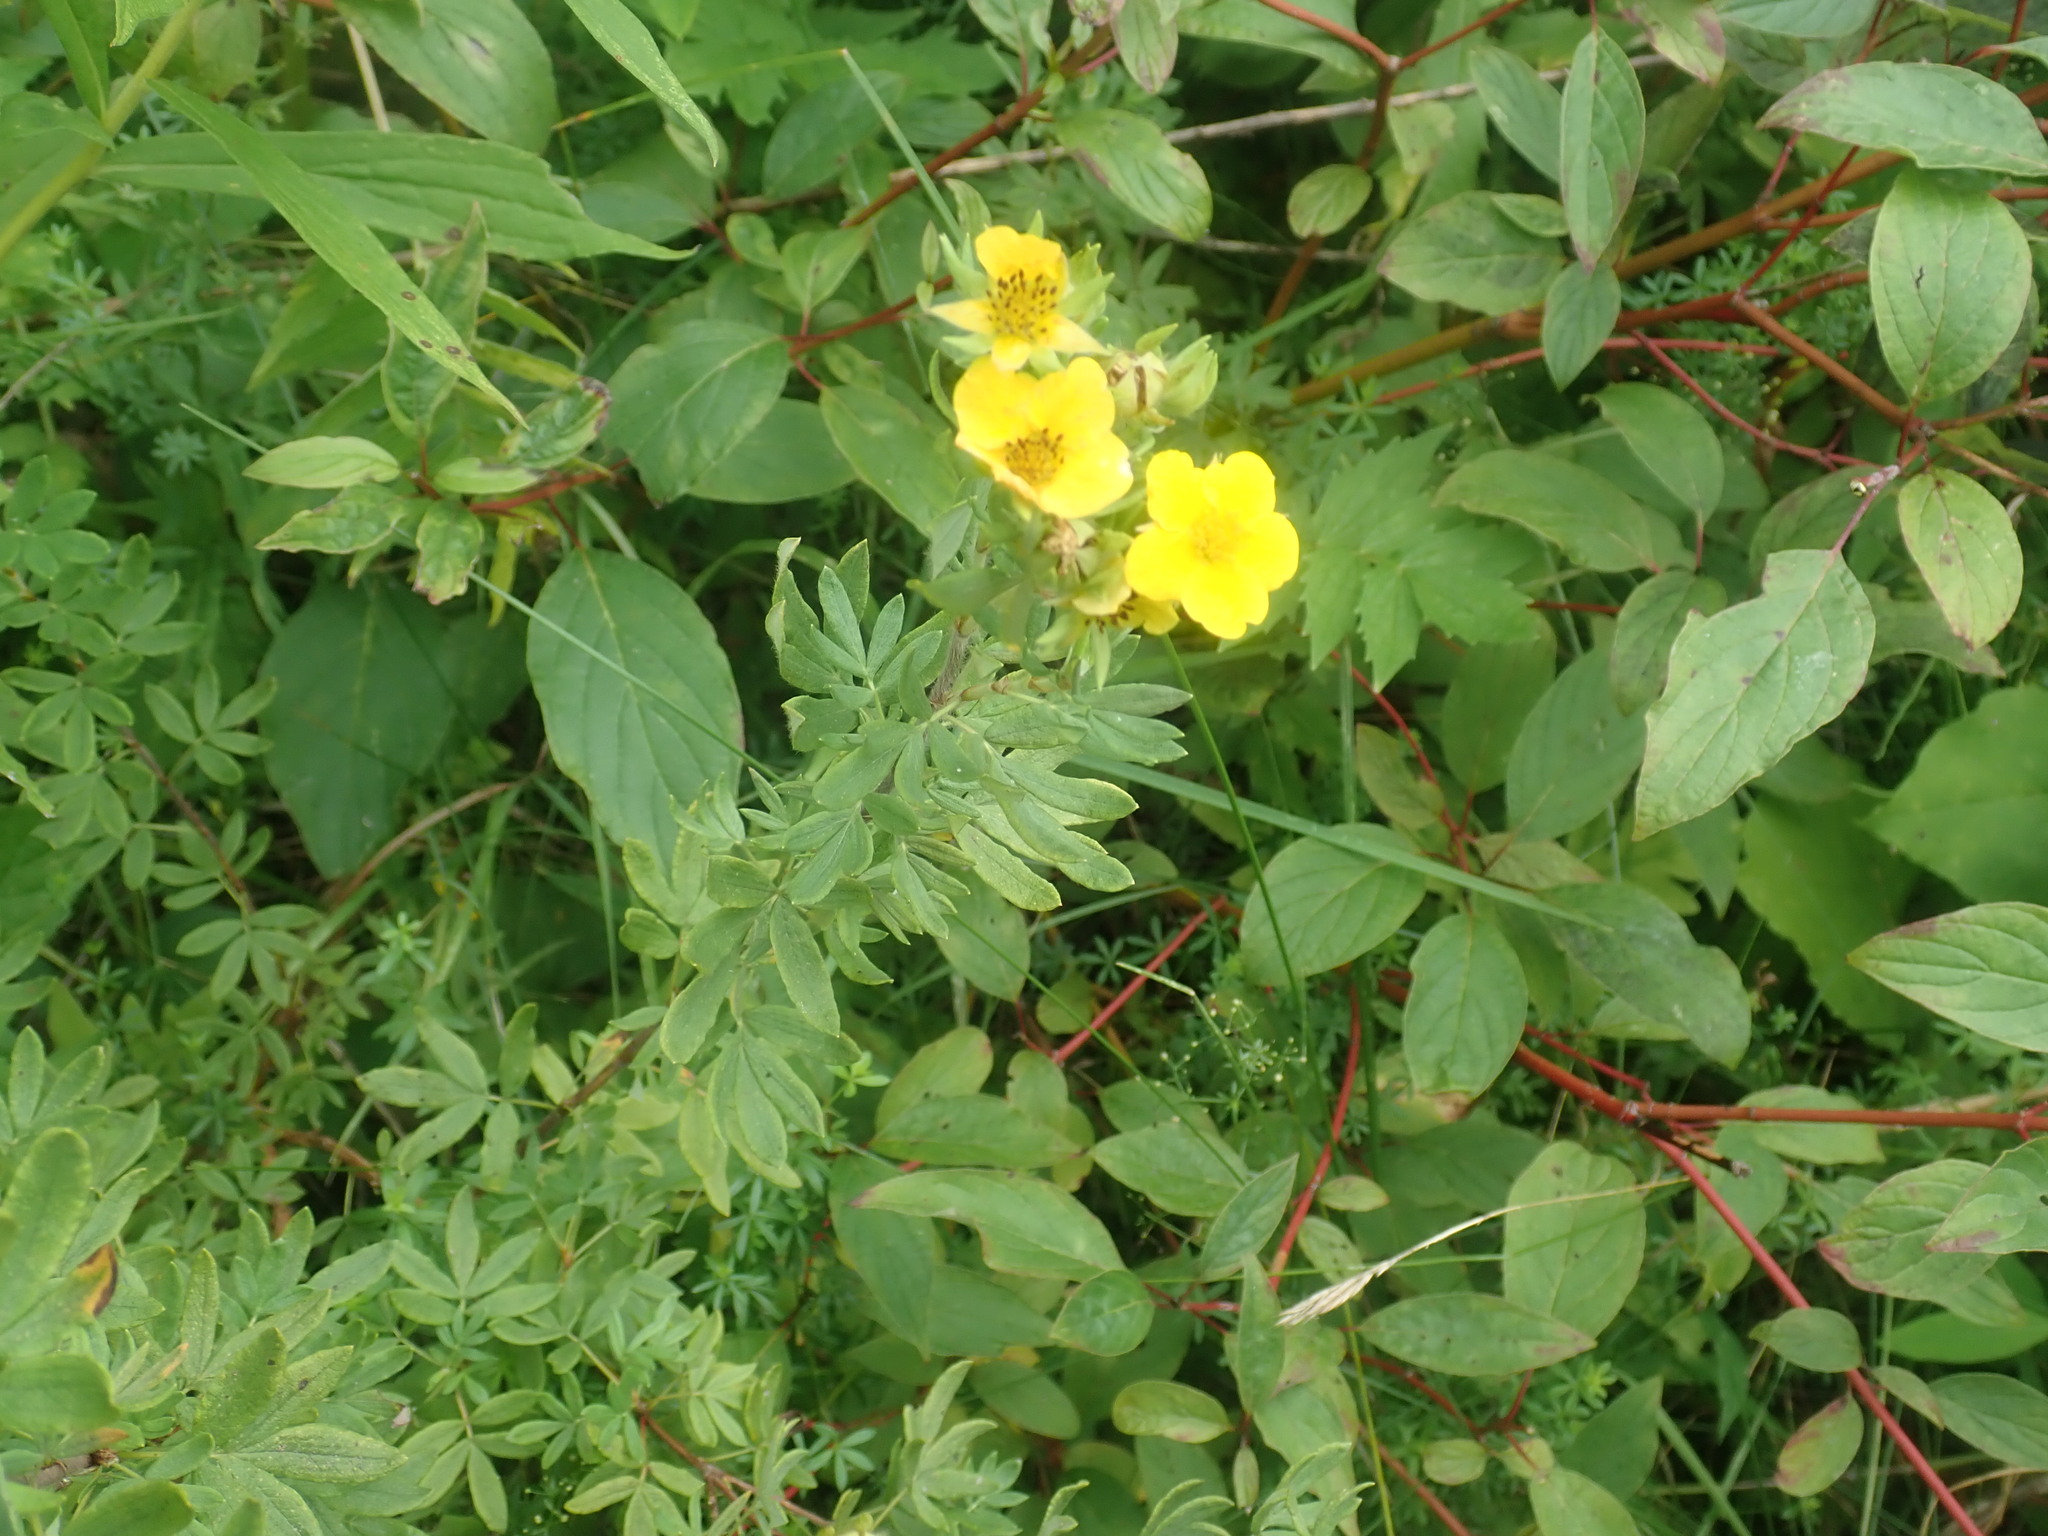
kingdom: Plantae
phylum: Tracheophyta
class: Magnoliopsida
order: Rosales
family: Rosaceae
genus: Dasiphora
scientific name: Dasiphora fruticosa
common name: Shrubby cinquefoil
